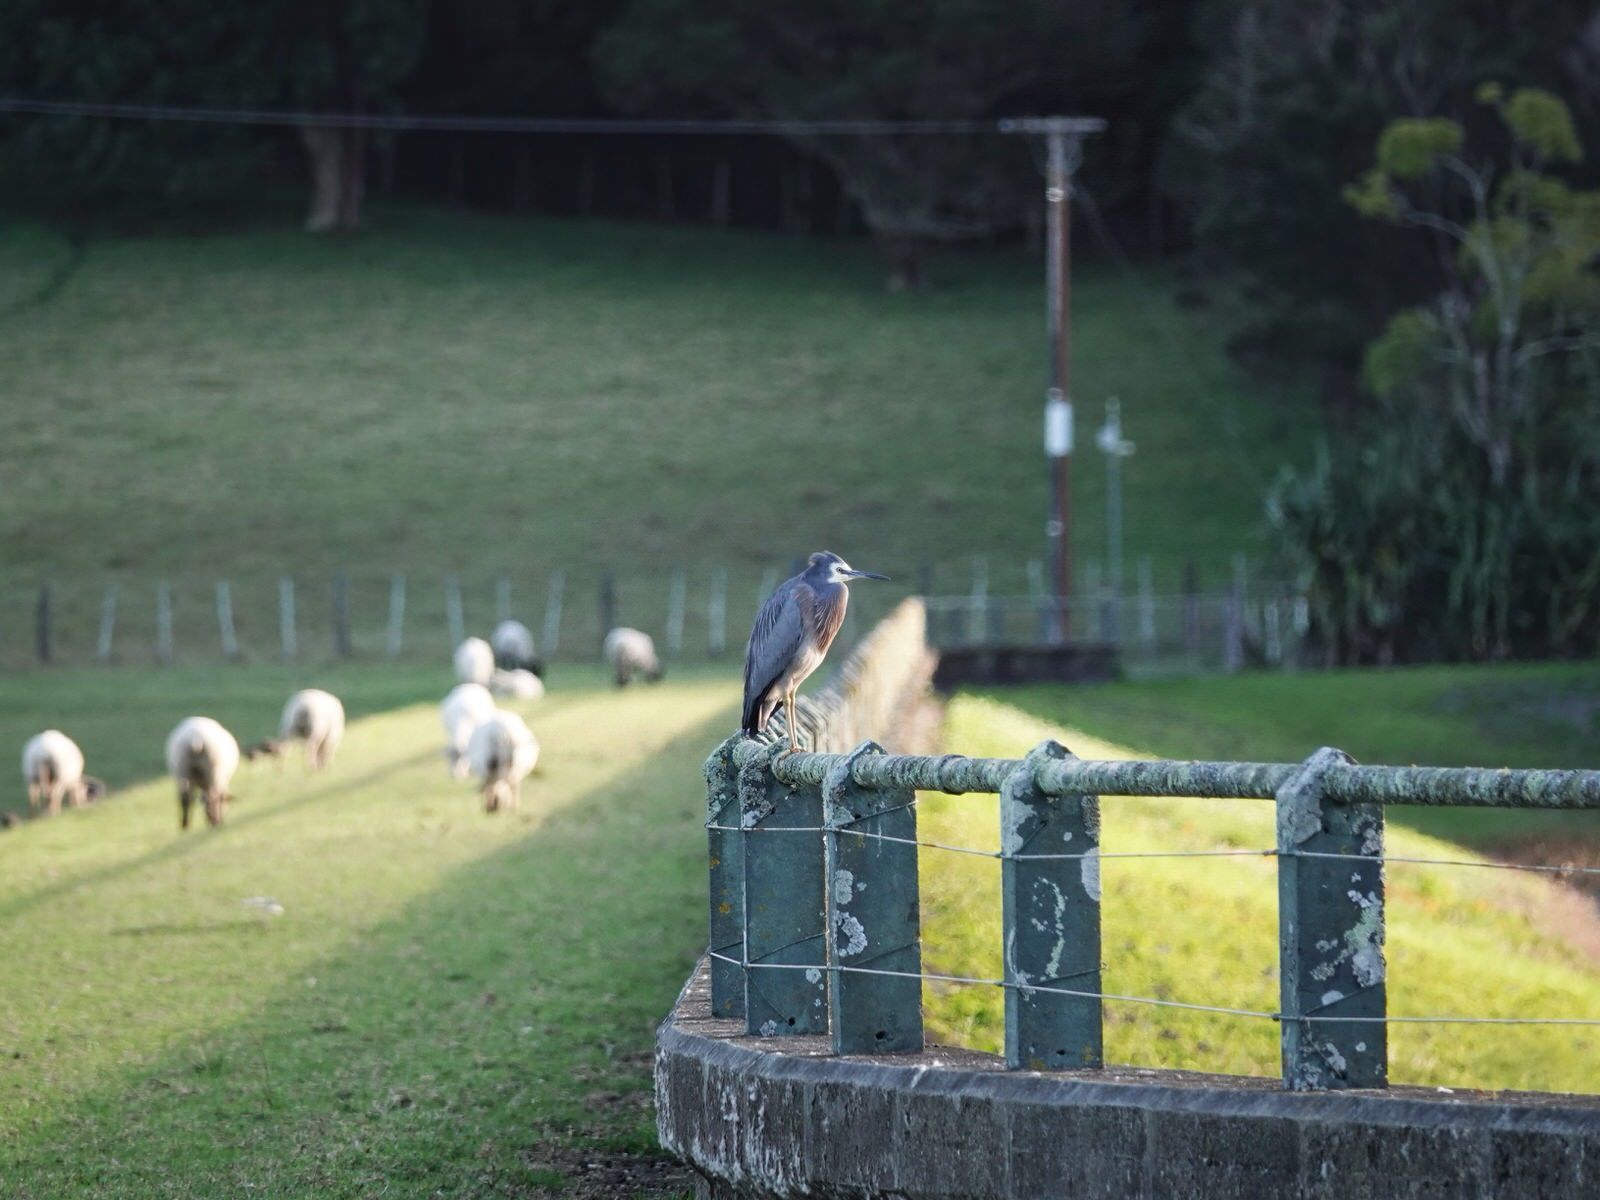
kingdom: Animalia
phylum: Chordata
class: Aves
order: Pelecaniformes
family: Ardeidae
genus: Egretta
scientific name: Egretta novaehollandiae
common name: White-faced heron
